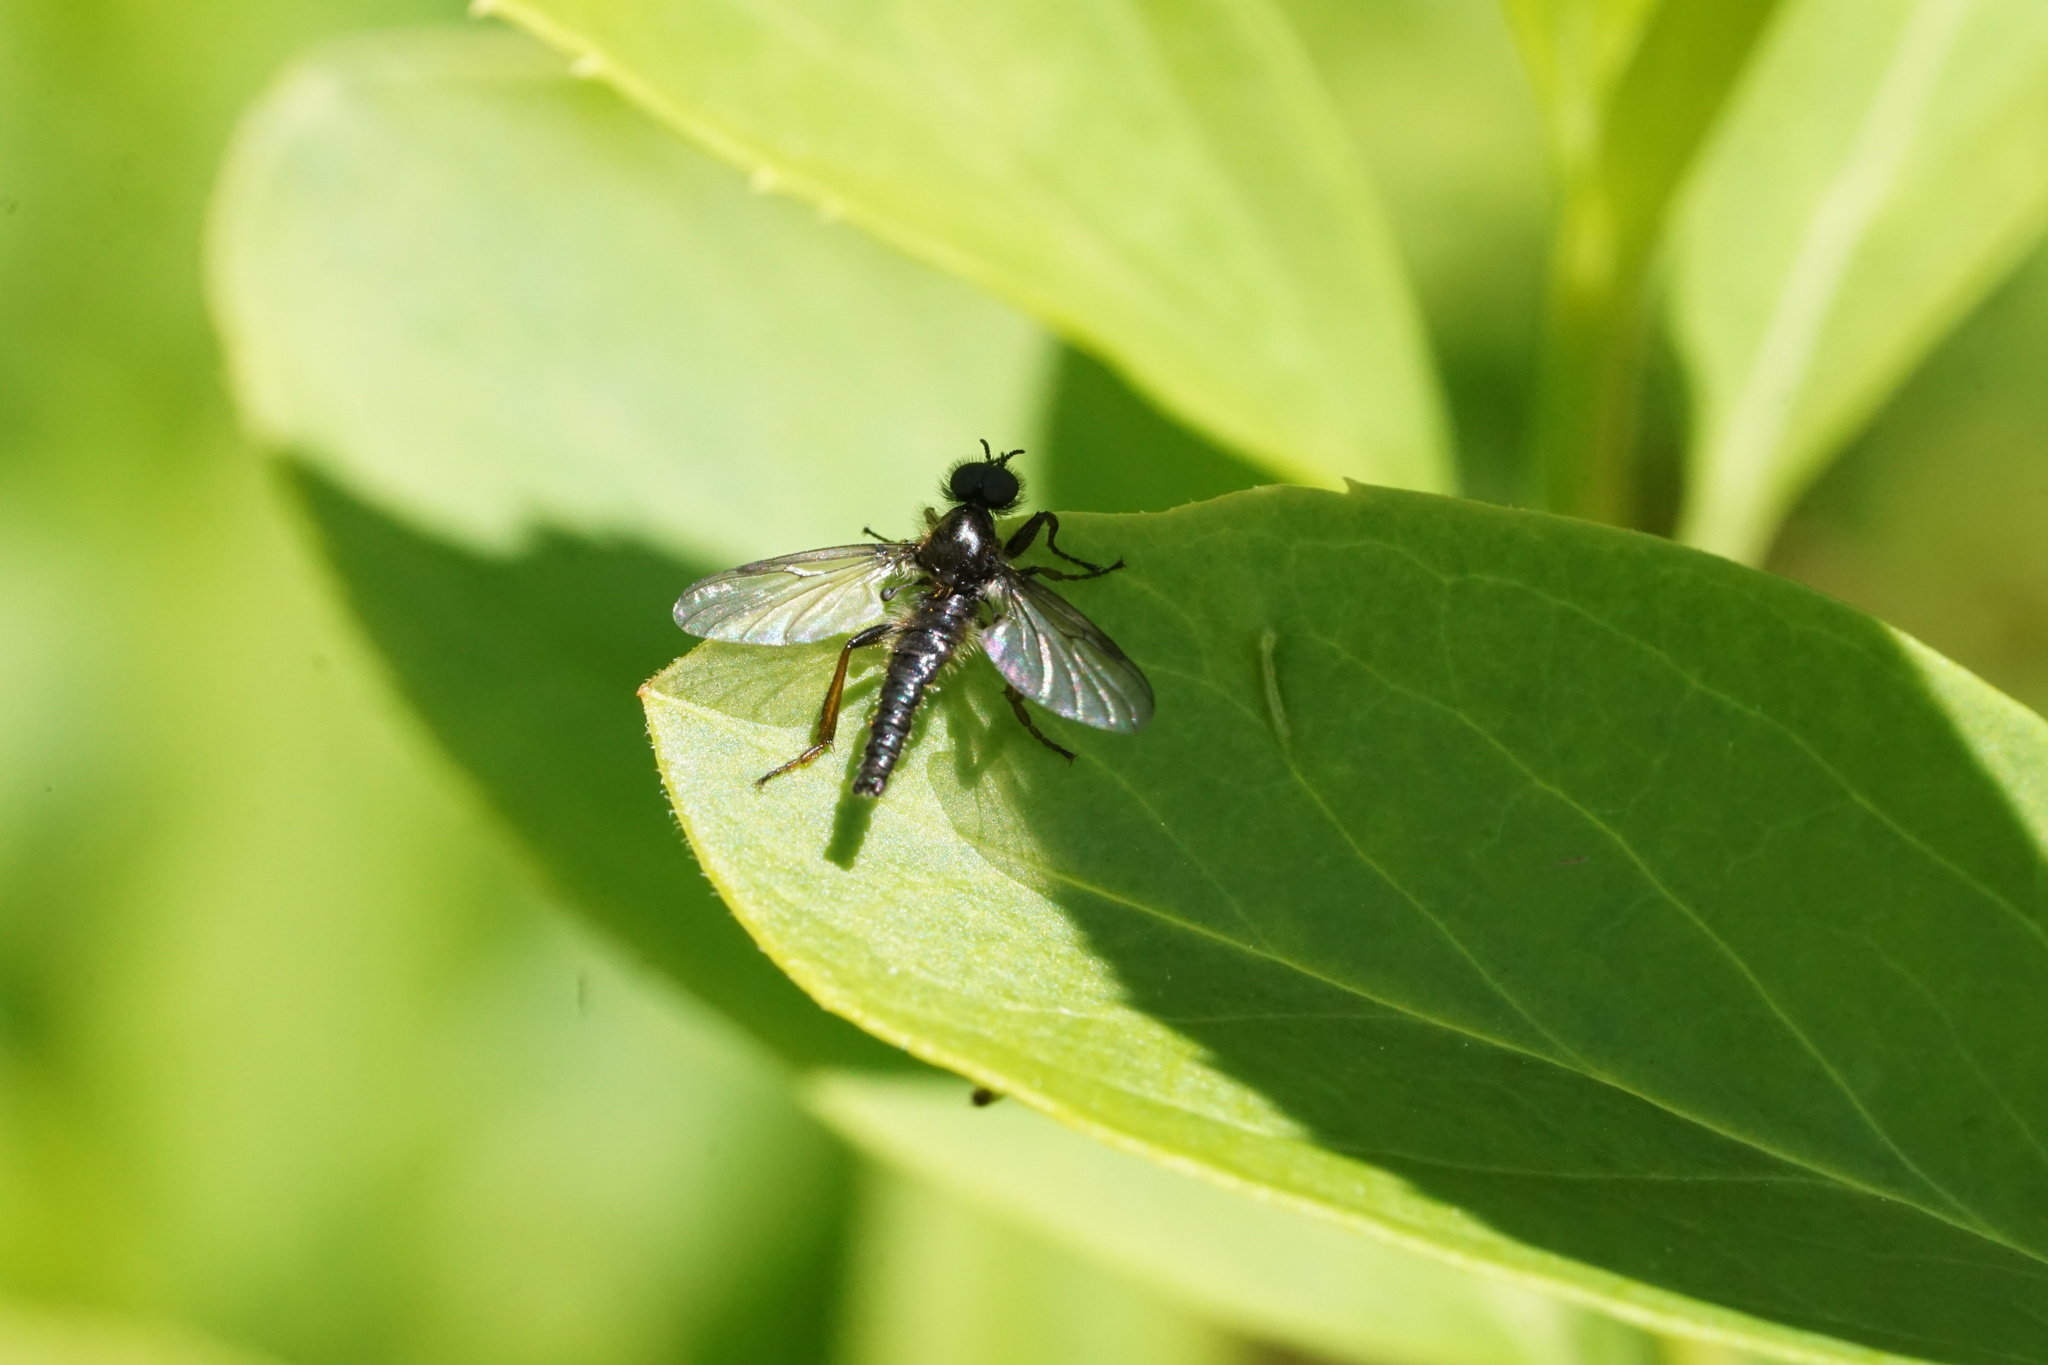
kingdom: Animalia
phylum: Arthropoda
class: Insecta
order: Diptera
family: Bibionidae
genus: Bibio
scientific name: Bibio lanigerus
